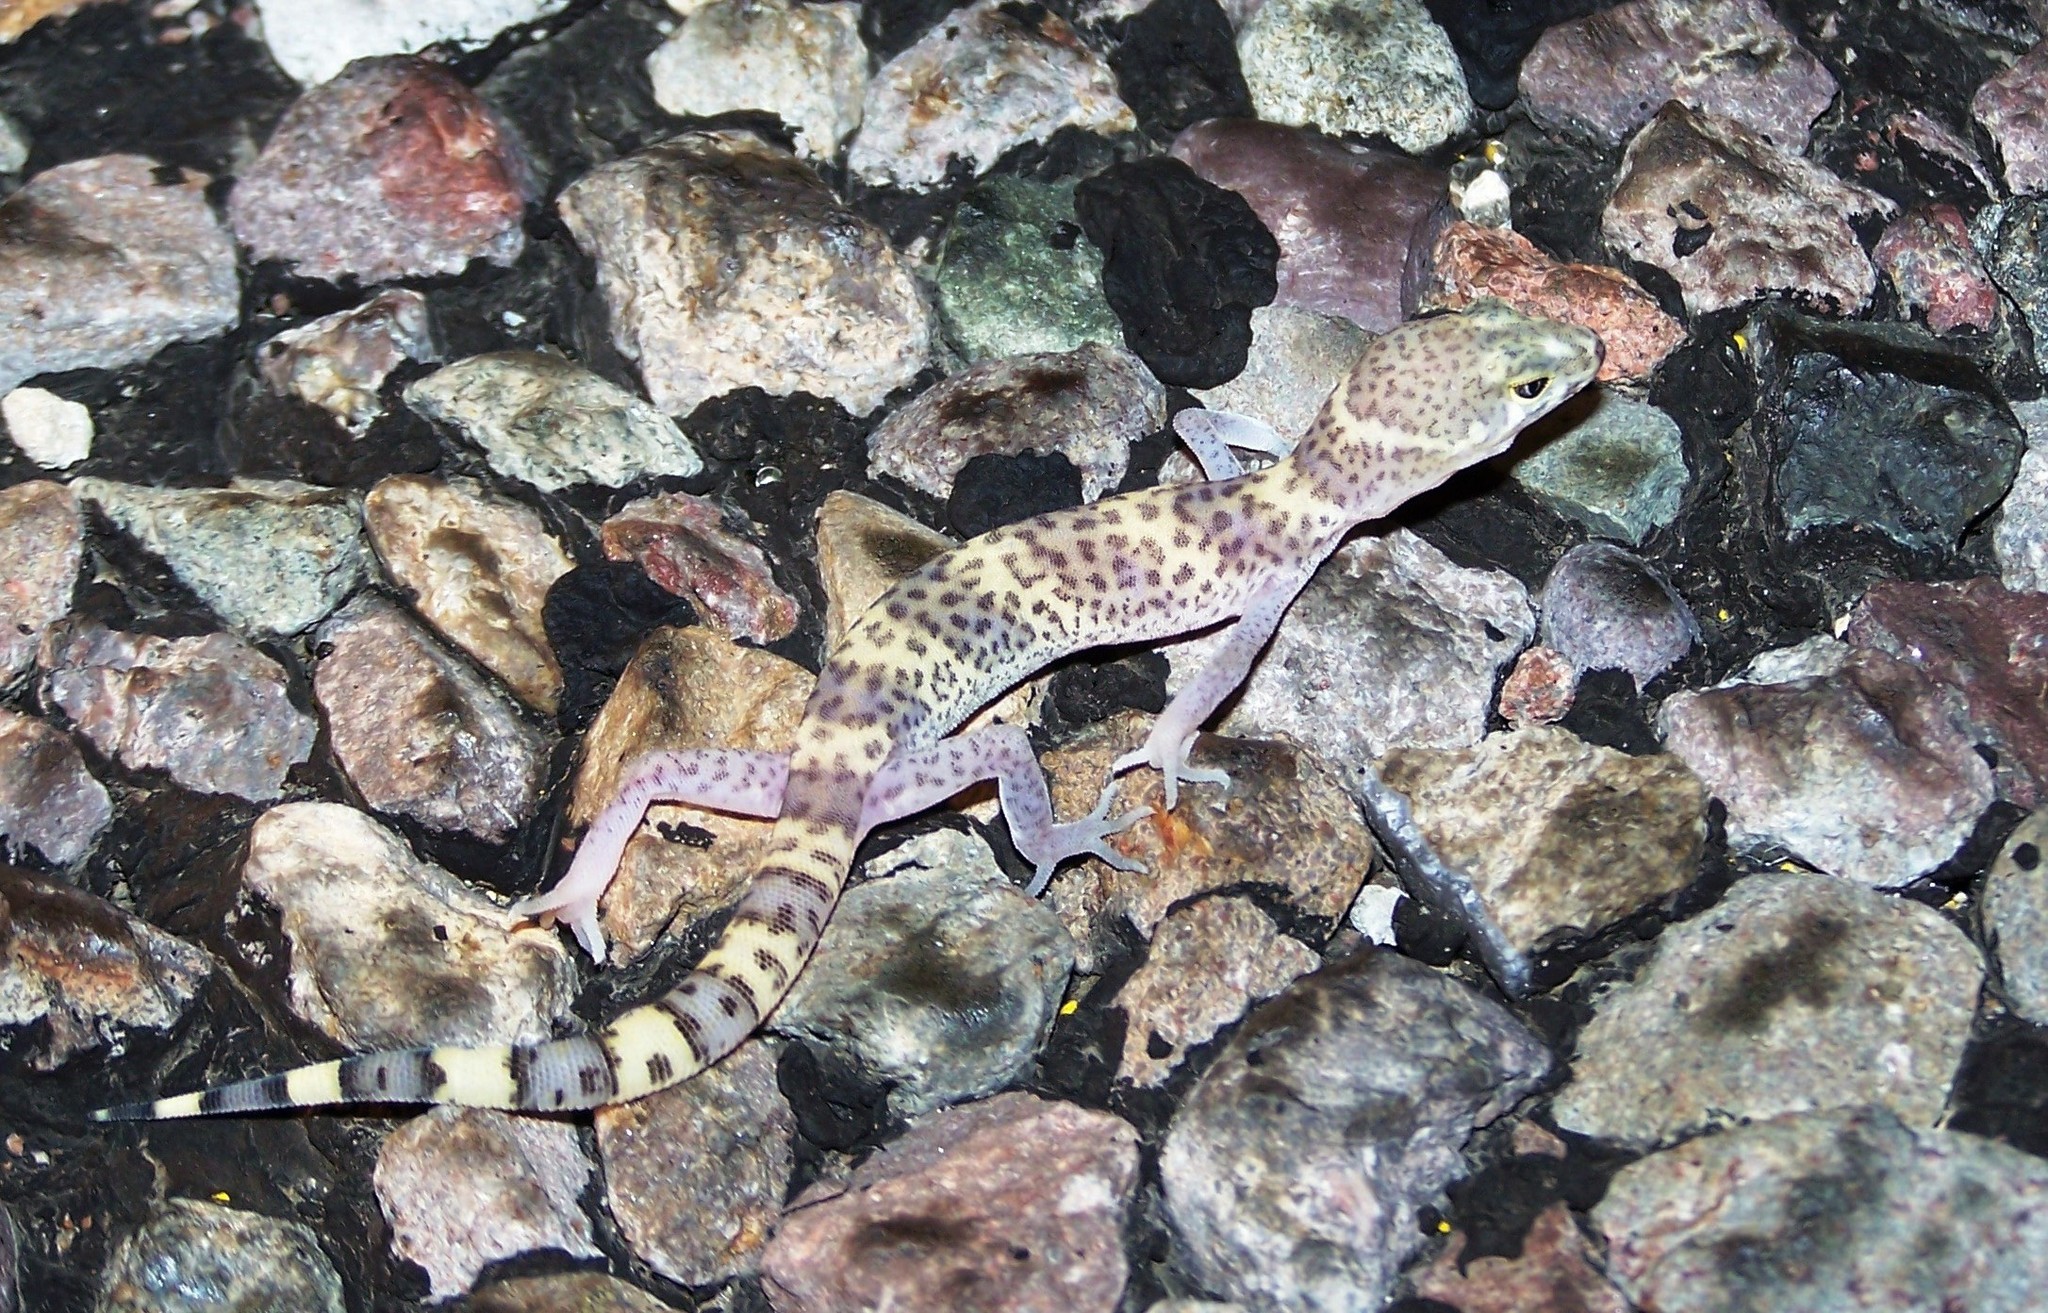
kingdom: Animalia
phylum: Chordata
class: Squamata
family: Eublepharidae
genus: Coleonyx
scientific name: Coleonyx brevis
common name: Texas banded gecko
